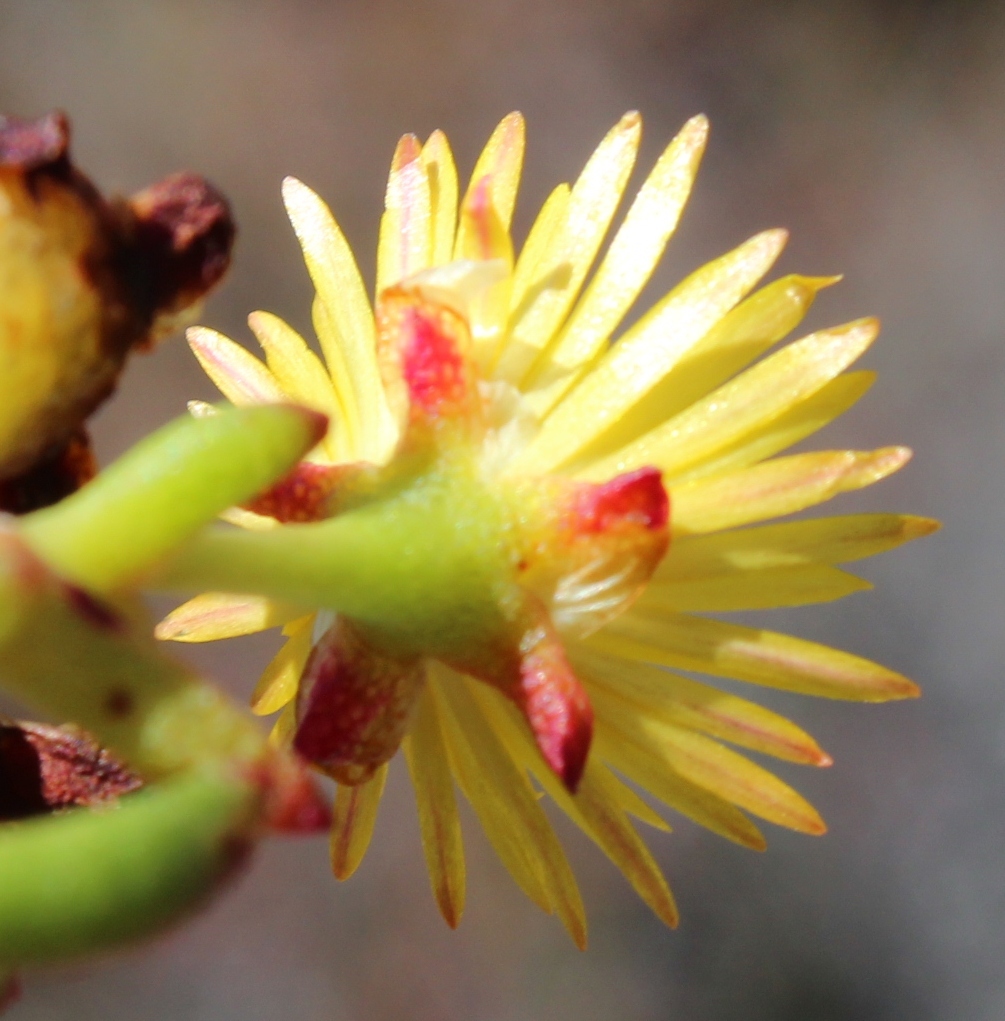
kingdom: Plantae
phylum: Tracheophyta
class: Magnoliopsida
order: Caryophyllales
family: Aizoaceae
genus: Lampranthus
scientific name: Lampranthus promontorii
